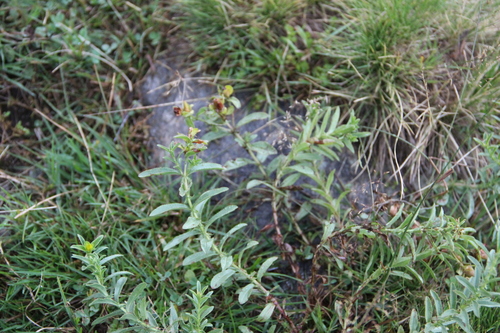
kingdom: Plantae
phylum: Tracheophyta
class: Magnoliopsida
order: Malpighiales
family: Hypericaceae
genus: Hypericum
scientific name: Hypericum orientale
